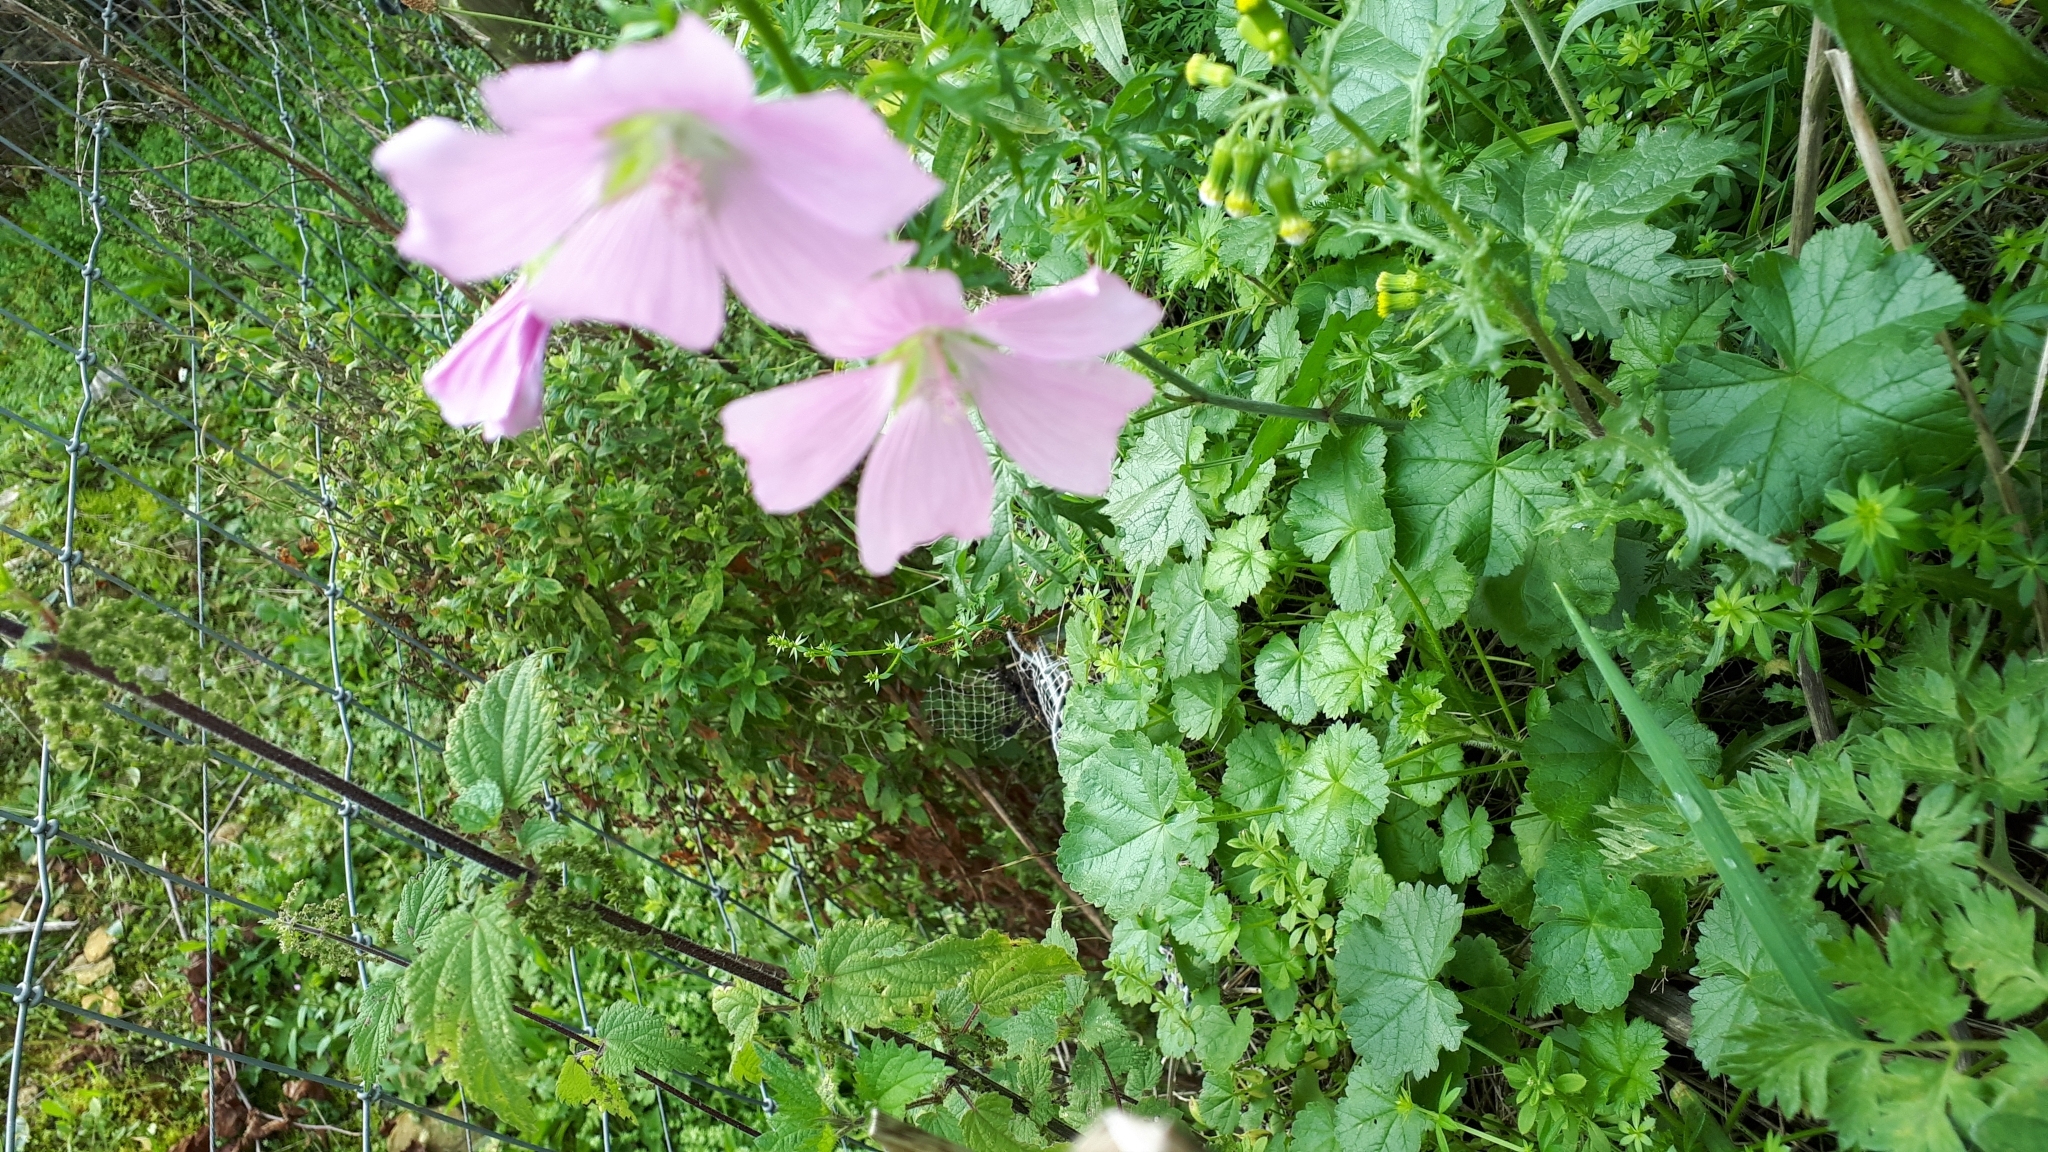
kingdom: Plantae
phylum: Tracheophyta
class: Magnoliopsida
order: Malvales
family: Malvaceae
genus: Malva
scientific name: Malva moschata
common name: Musk mallow
